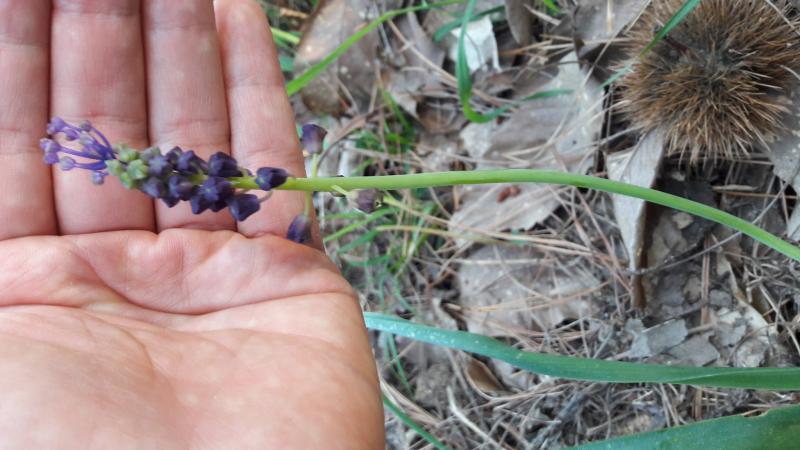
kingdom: Plantae
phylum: Tracheophyta
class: Liliopsida
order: Asparagales
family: Asparagaceae
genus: Muscari
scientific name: Muscari comosum
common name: Tassel hyacinth
